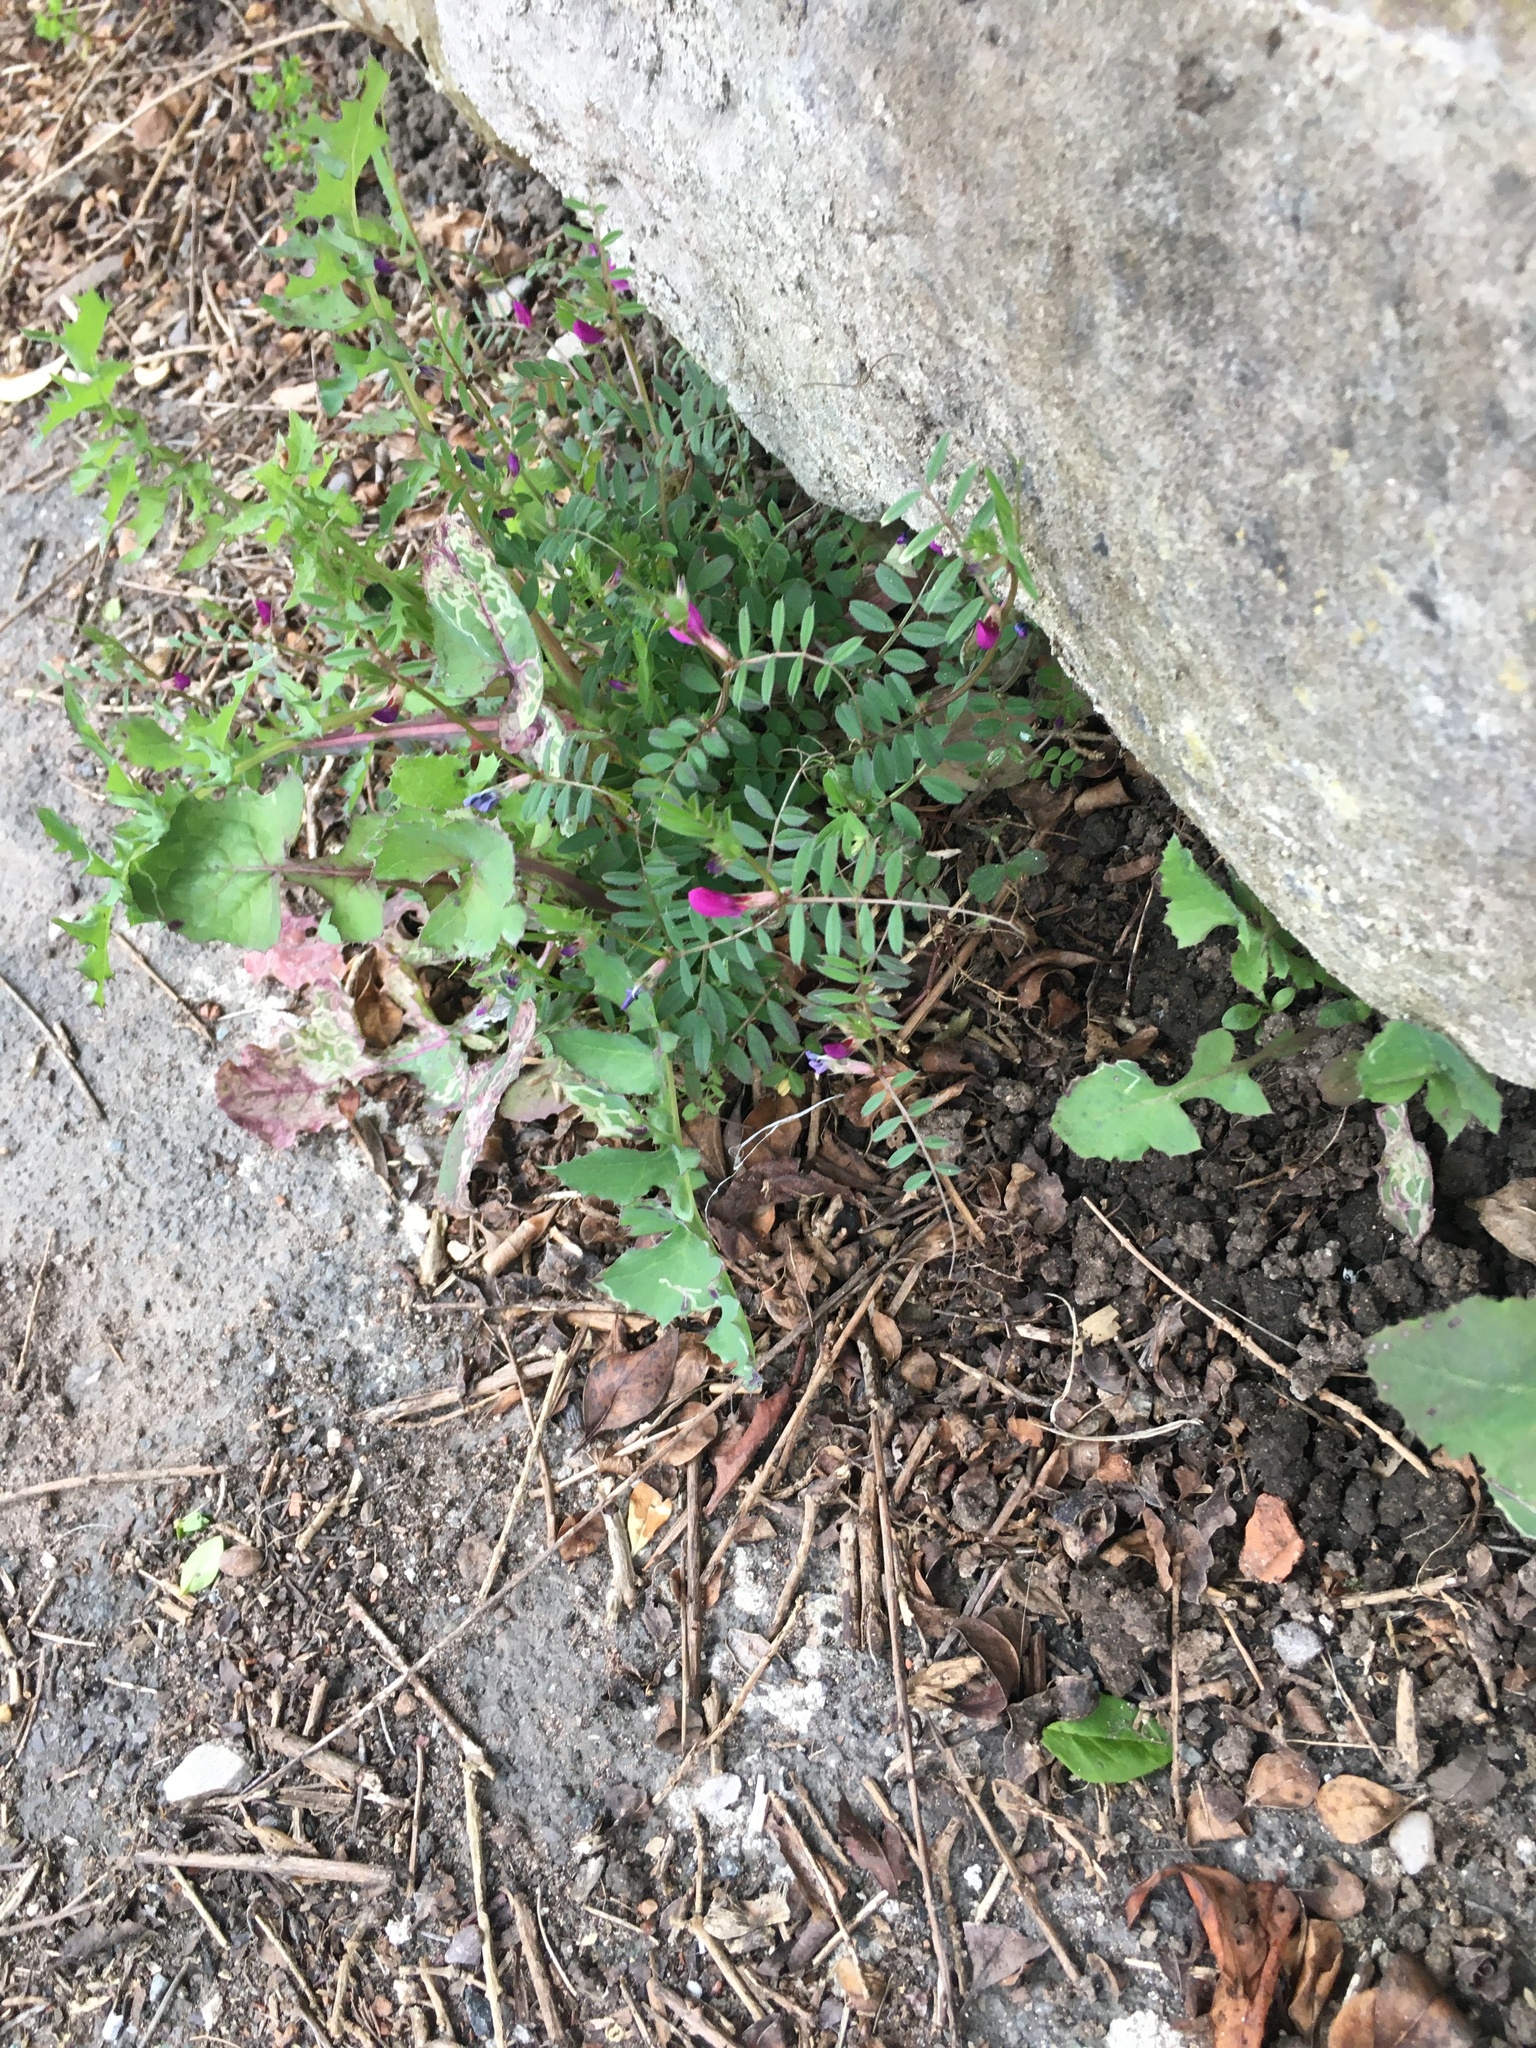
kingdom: Plantae
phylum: Tracheophyta
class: Magnoliopsida
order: Fabales
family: Fabaceae
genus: Vicia
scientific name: Vicia sativa
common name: Garden vetch
